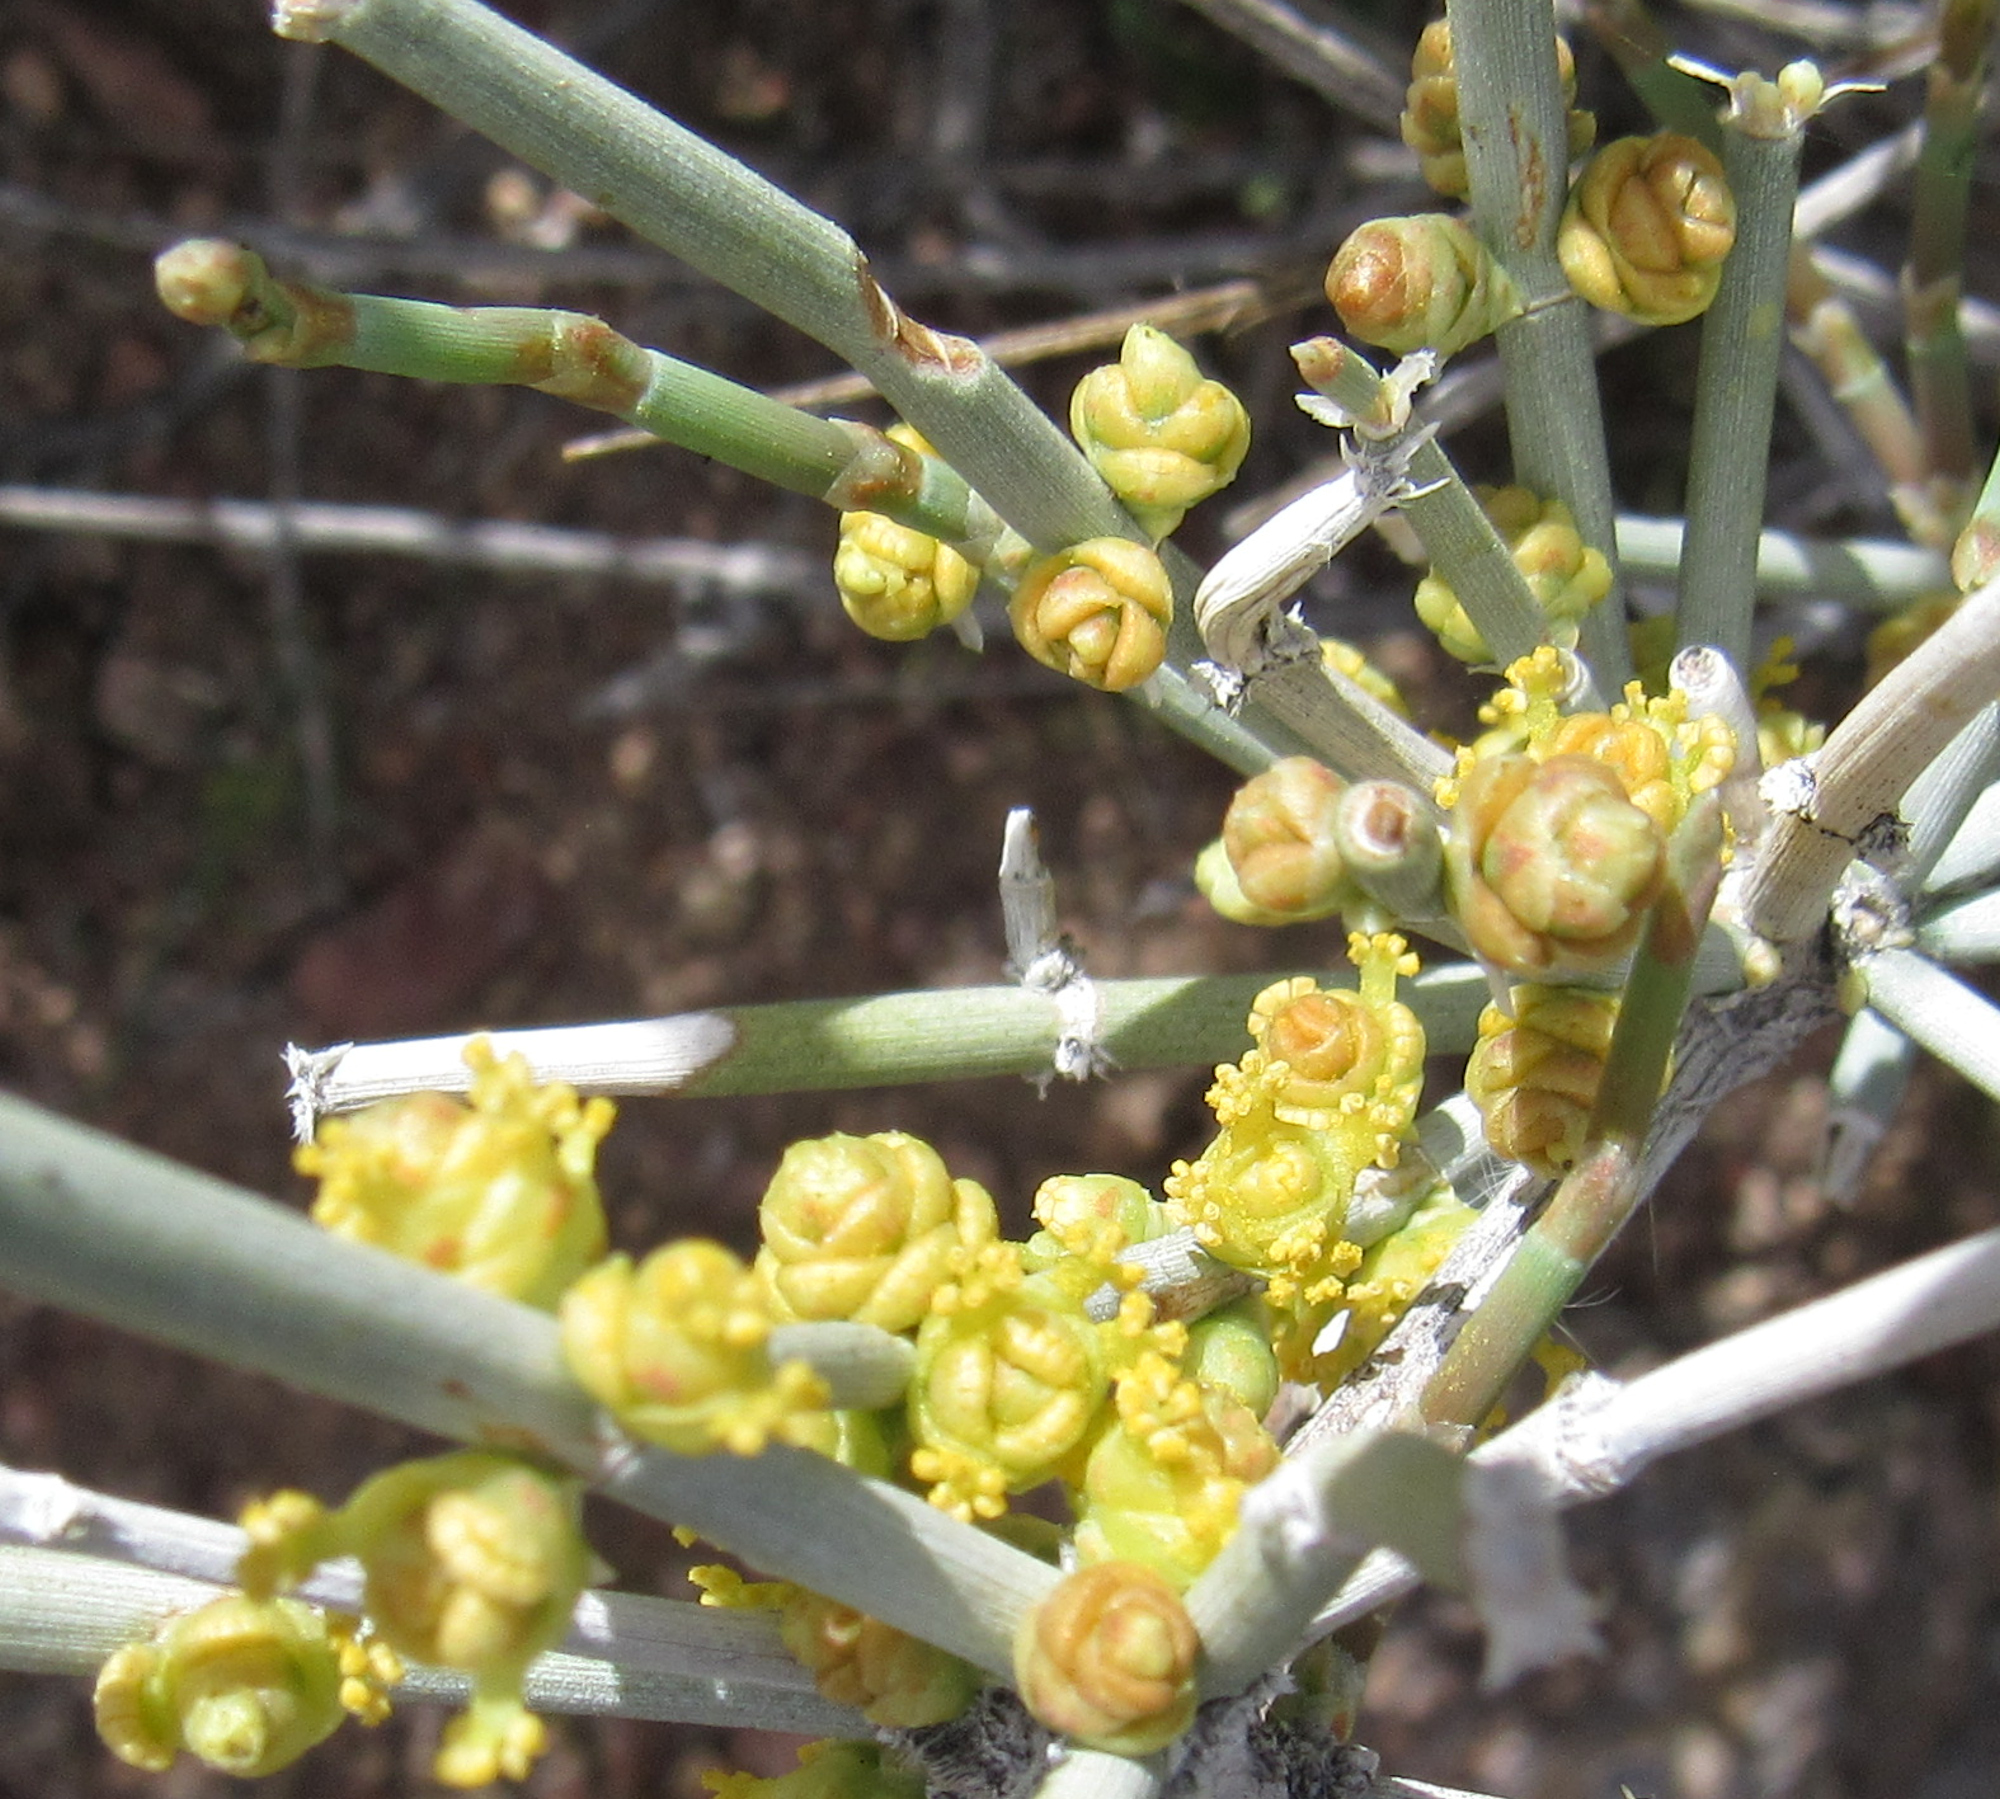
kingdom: Plantae
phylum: Tracheophyta
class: Gnetopsida
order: Ephedrales
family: Ephedraceae
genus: Ephedra
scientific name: Ephedra nevadensis
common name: Gray ephedra
